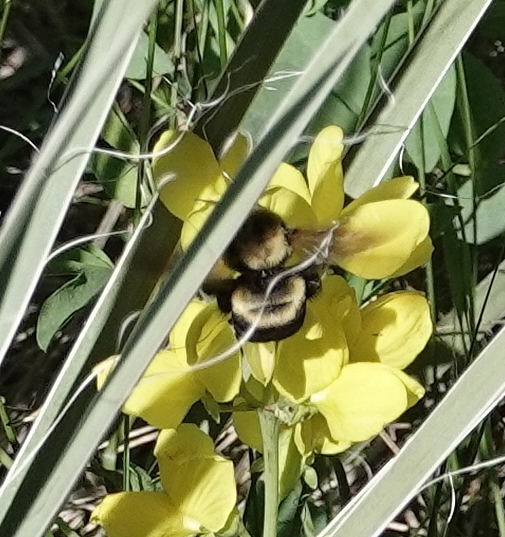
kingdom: Animalia
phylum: Arthropoda
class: Insecta
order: Hymenoptera
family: Apidae
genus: Bombus
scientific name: Bombus griseocollis
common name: Brown-belted bumble bee
